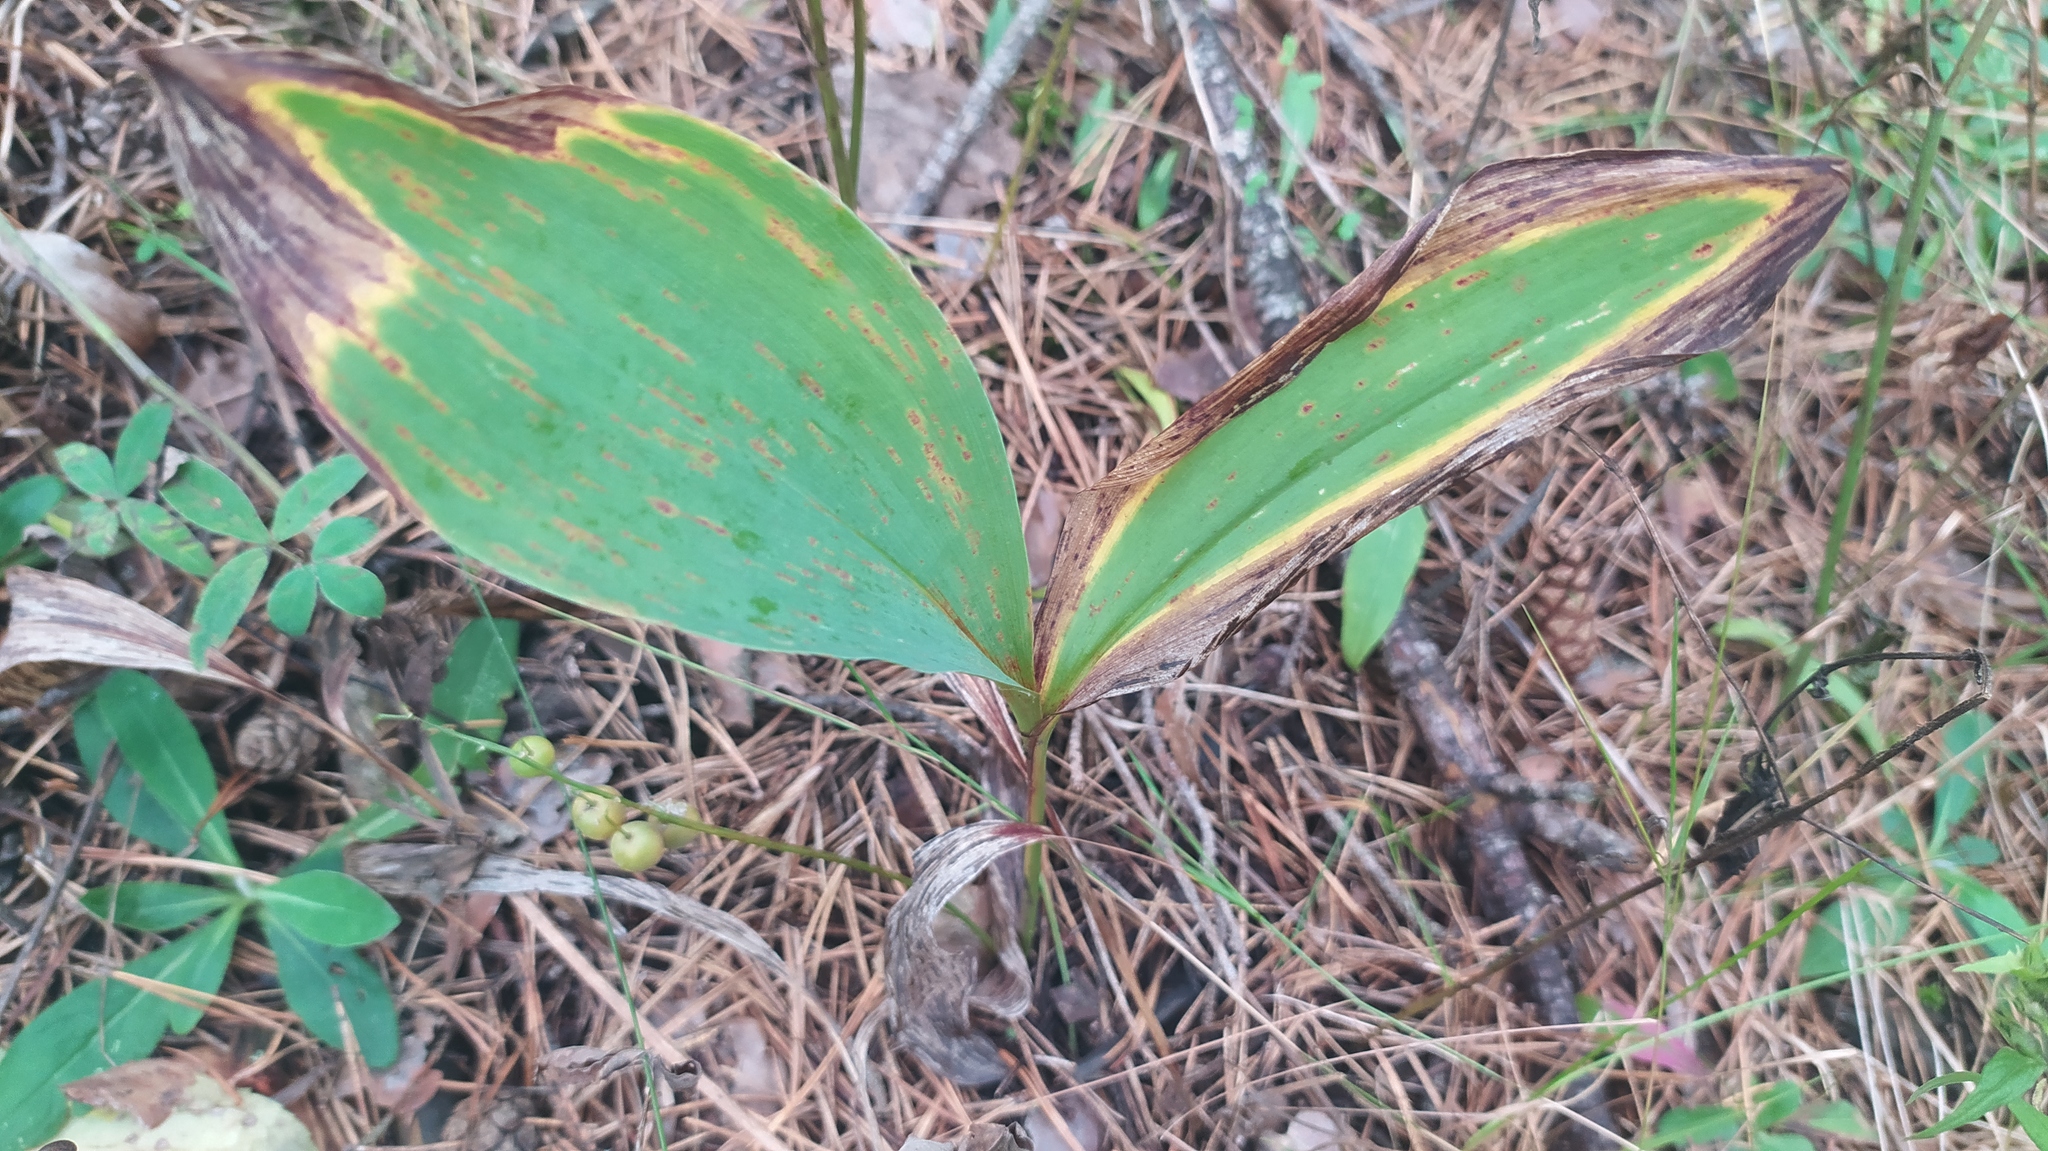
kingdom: Plantae
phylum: Tracheophyta
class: Liliopsida
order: Asparagales
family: Asparagaceae
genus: Convallaria
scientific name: Convallaria majalis
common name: Lily-of-the-valley
